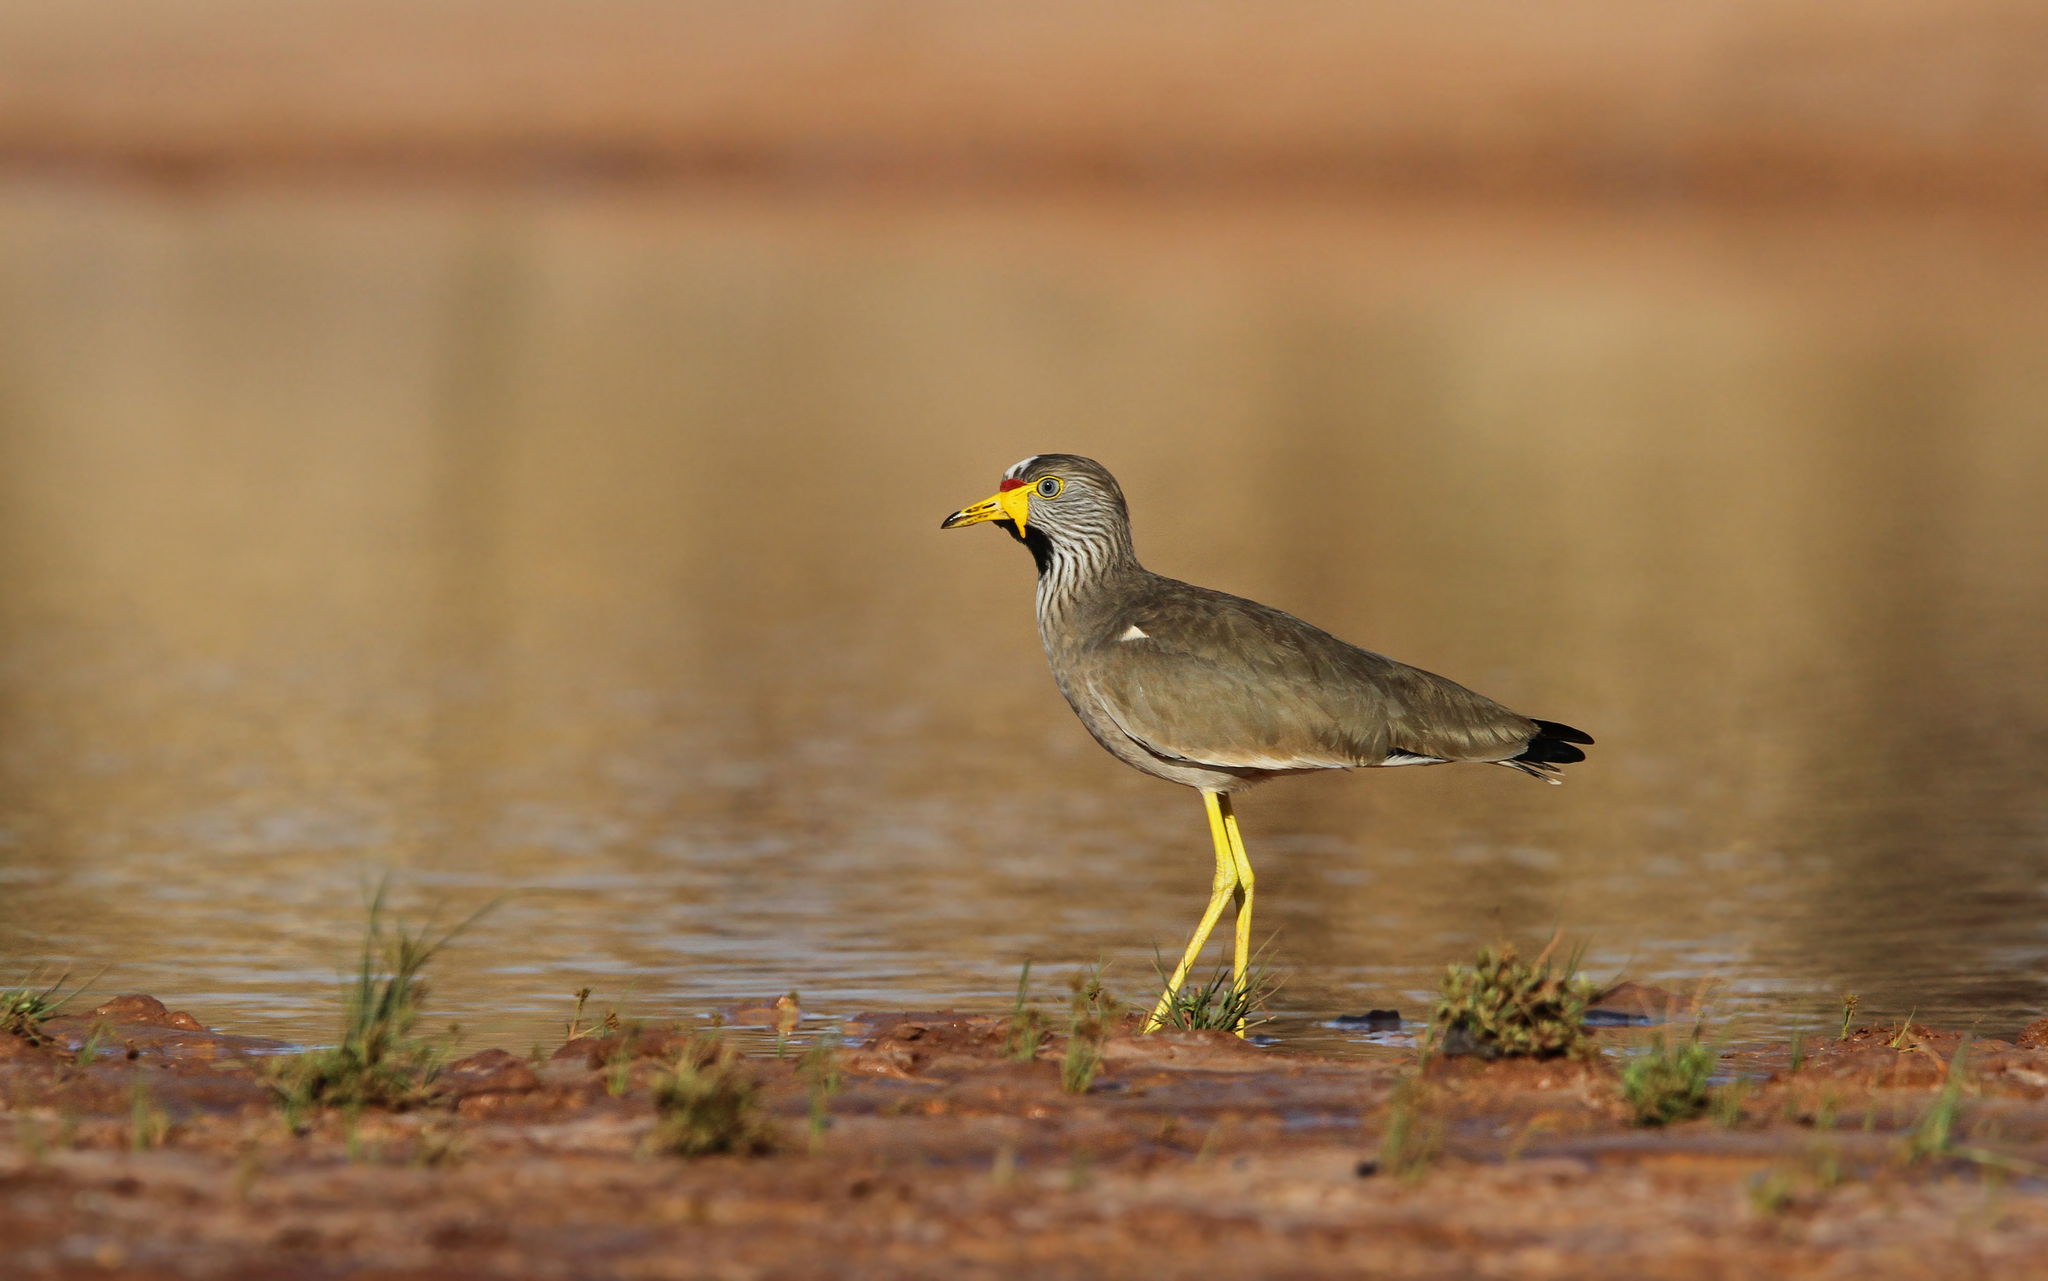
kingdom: Animalia
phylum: Chordata
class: Aves
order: Charadriiformes
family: Charadriidae
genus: Vanellus
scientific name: Vanellus senegallus
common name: African wattled lapwing
